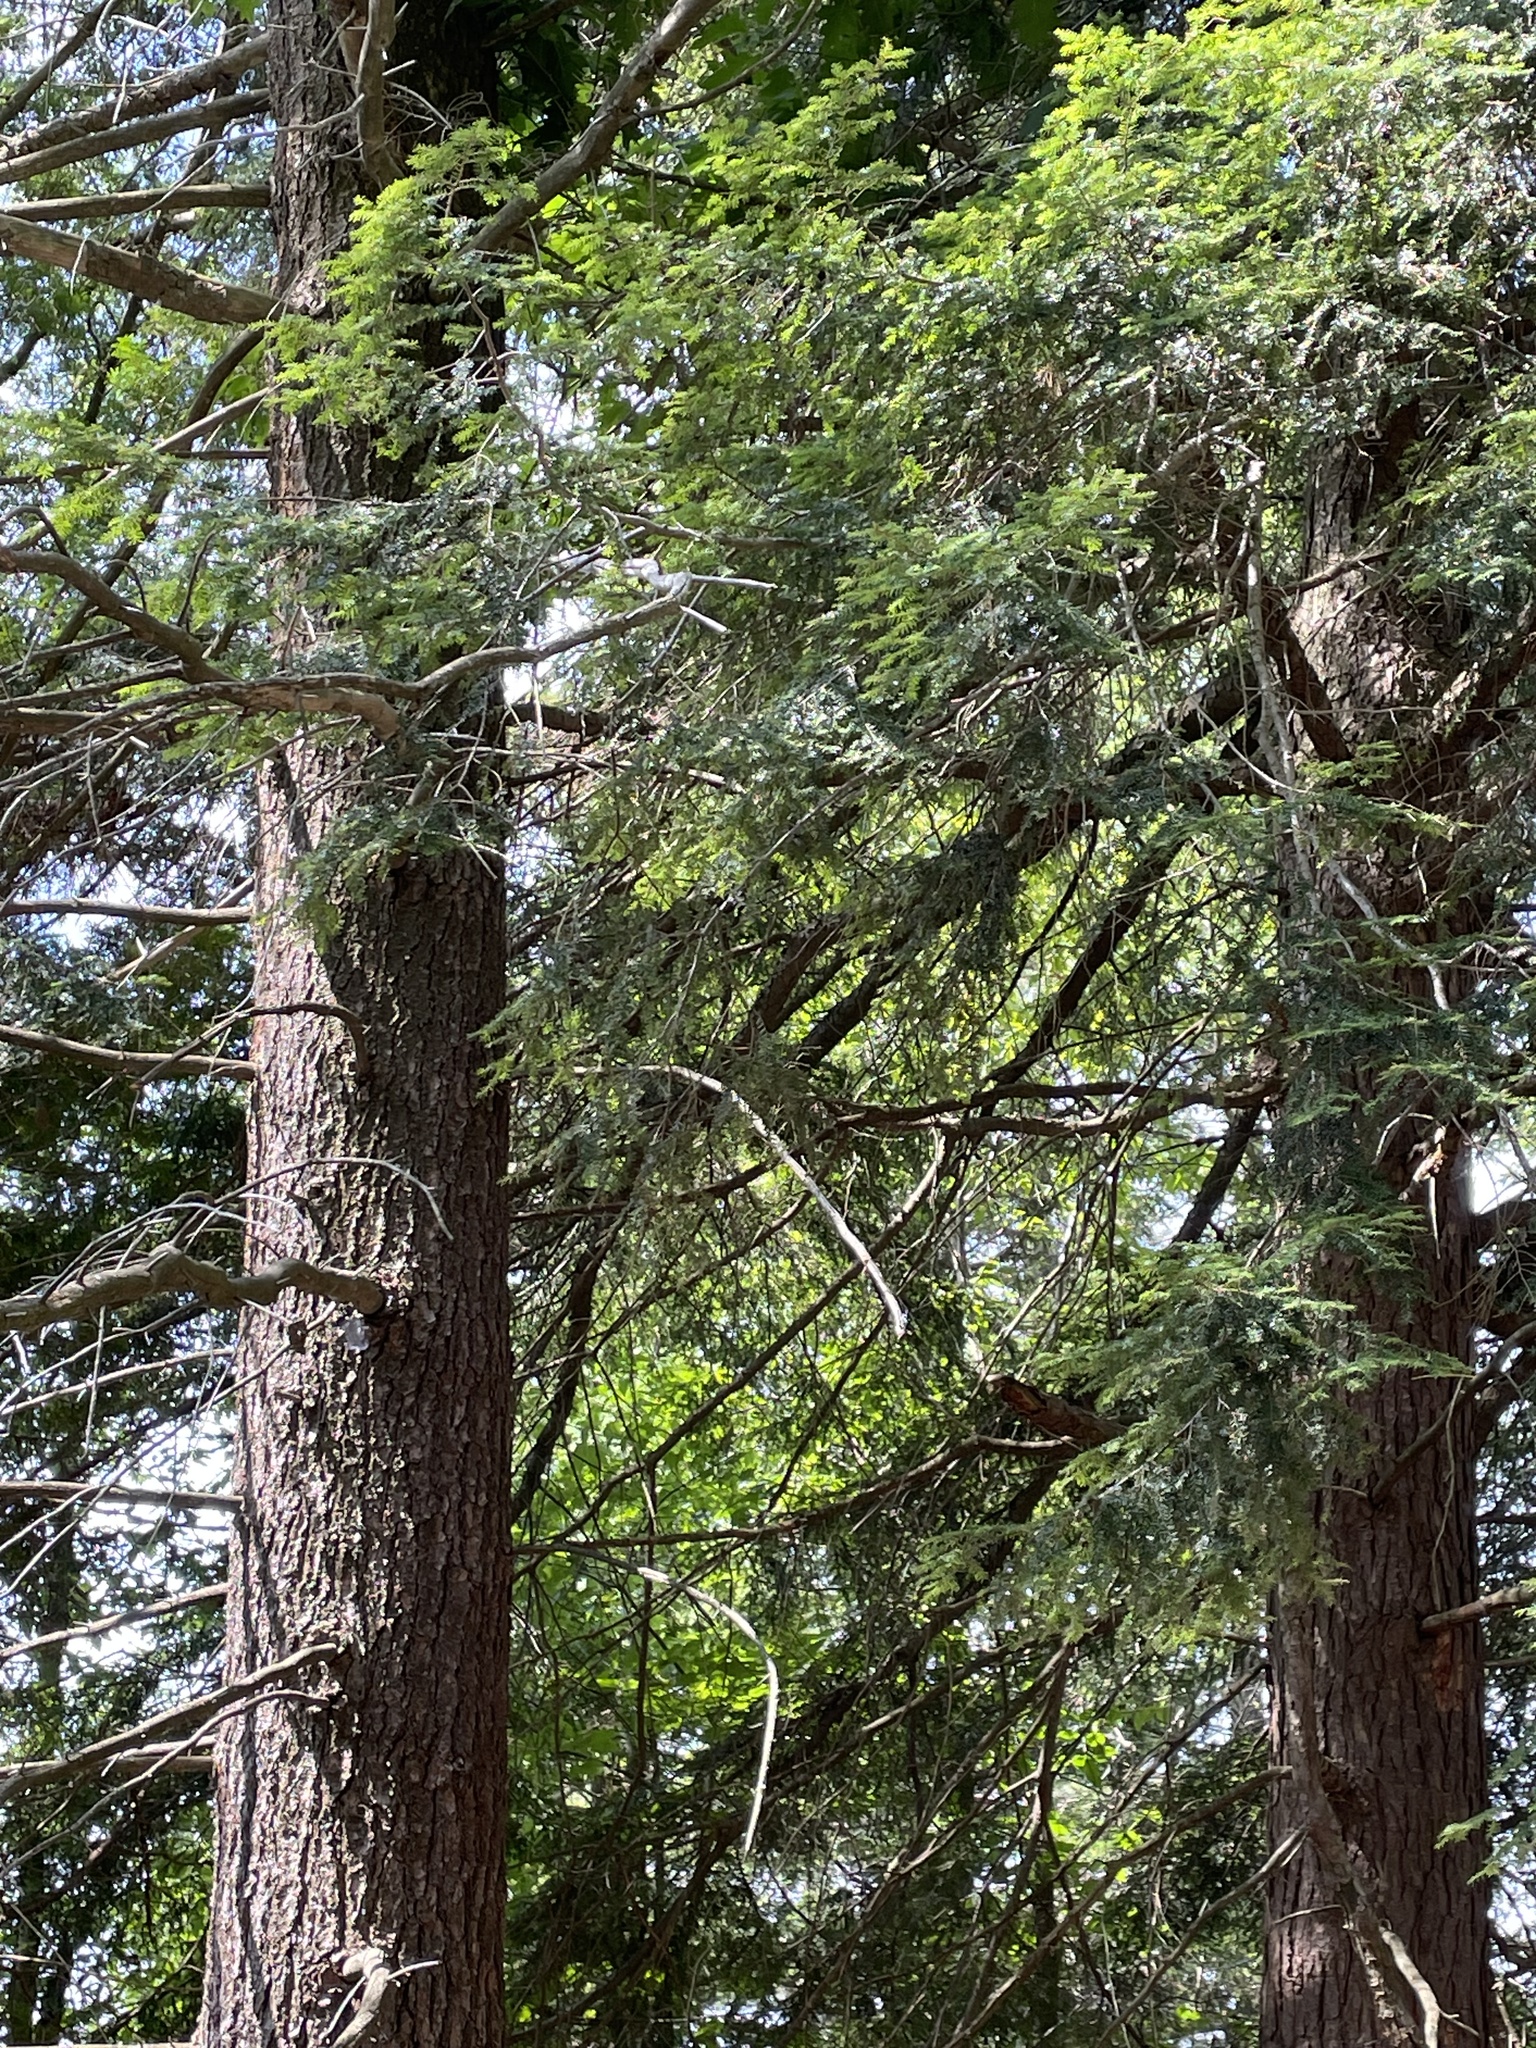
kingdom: Plantae
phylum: Tracheophyta
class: Pinopsida
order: Pinales
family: Pinaceae
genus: Tsuga
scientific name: Tsuga canadensis
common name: Eastern hemlock
